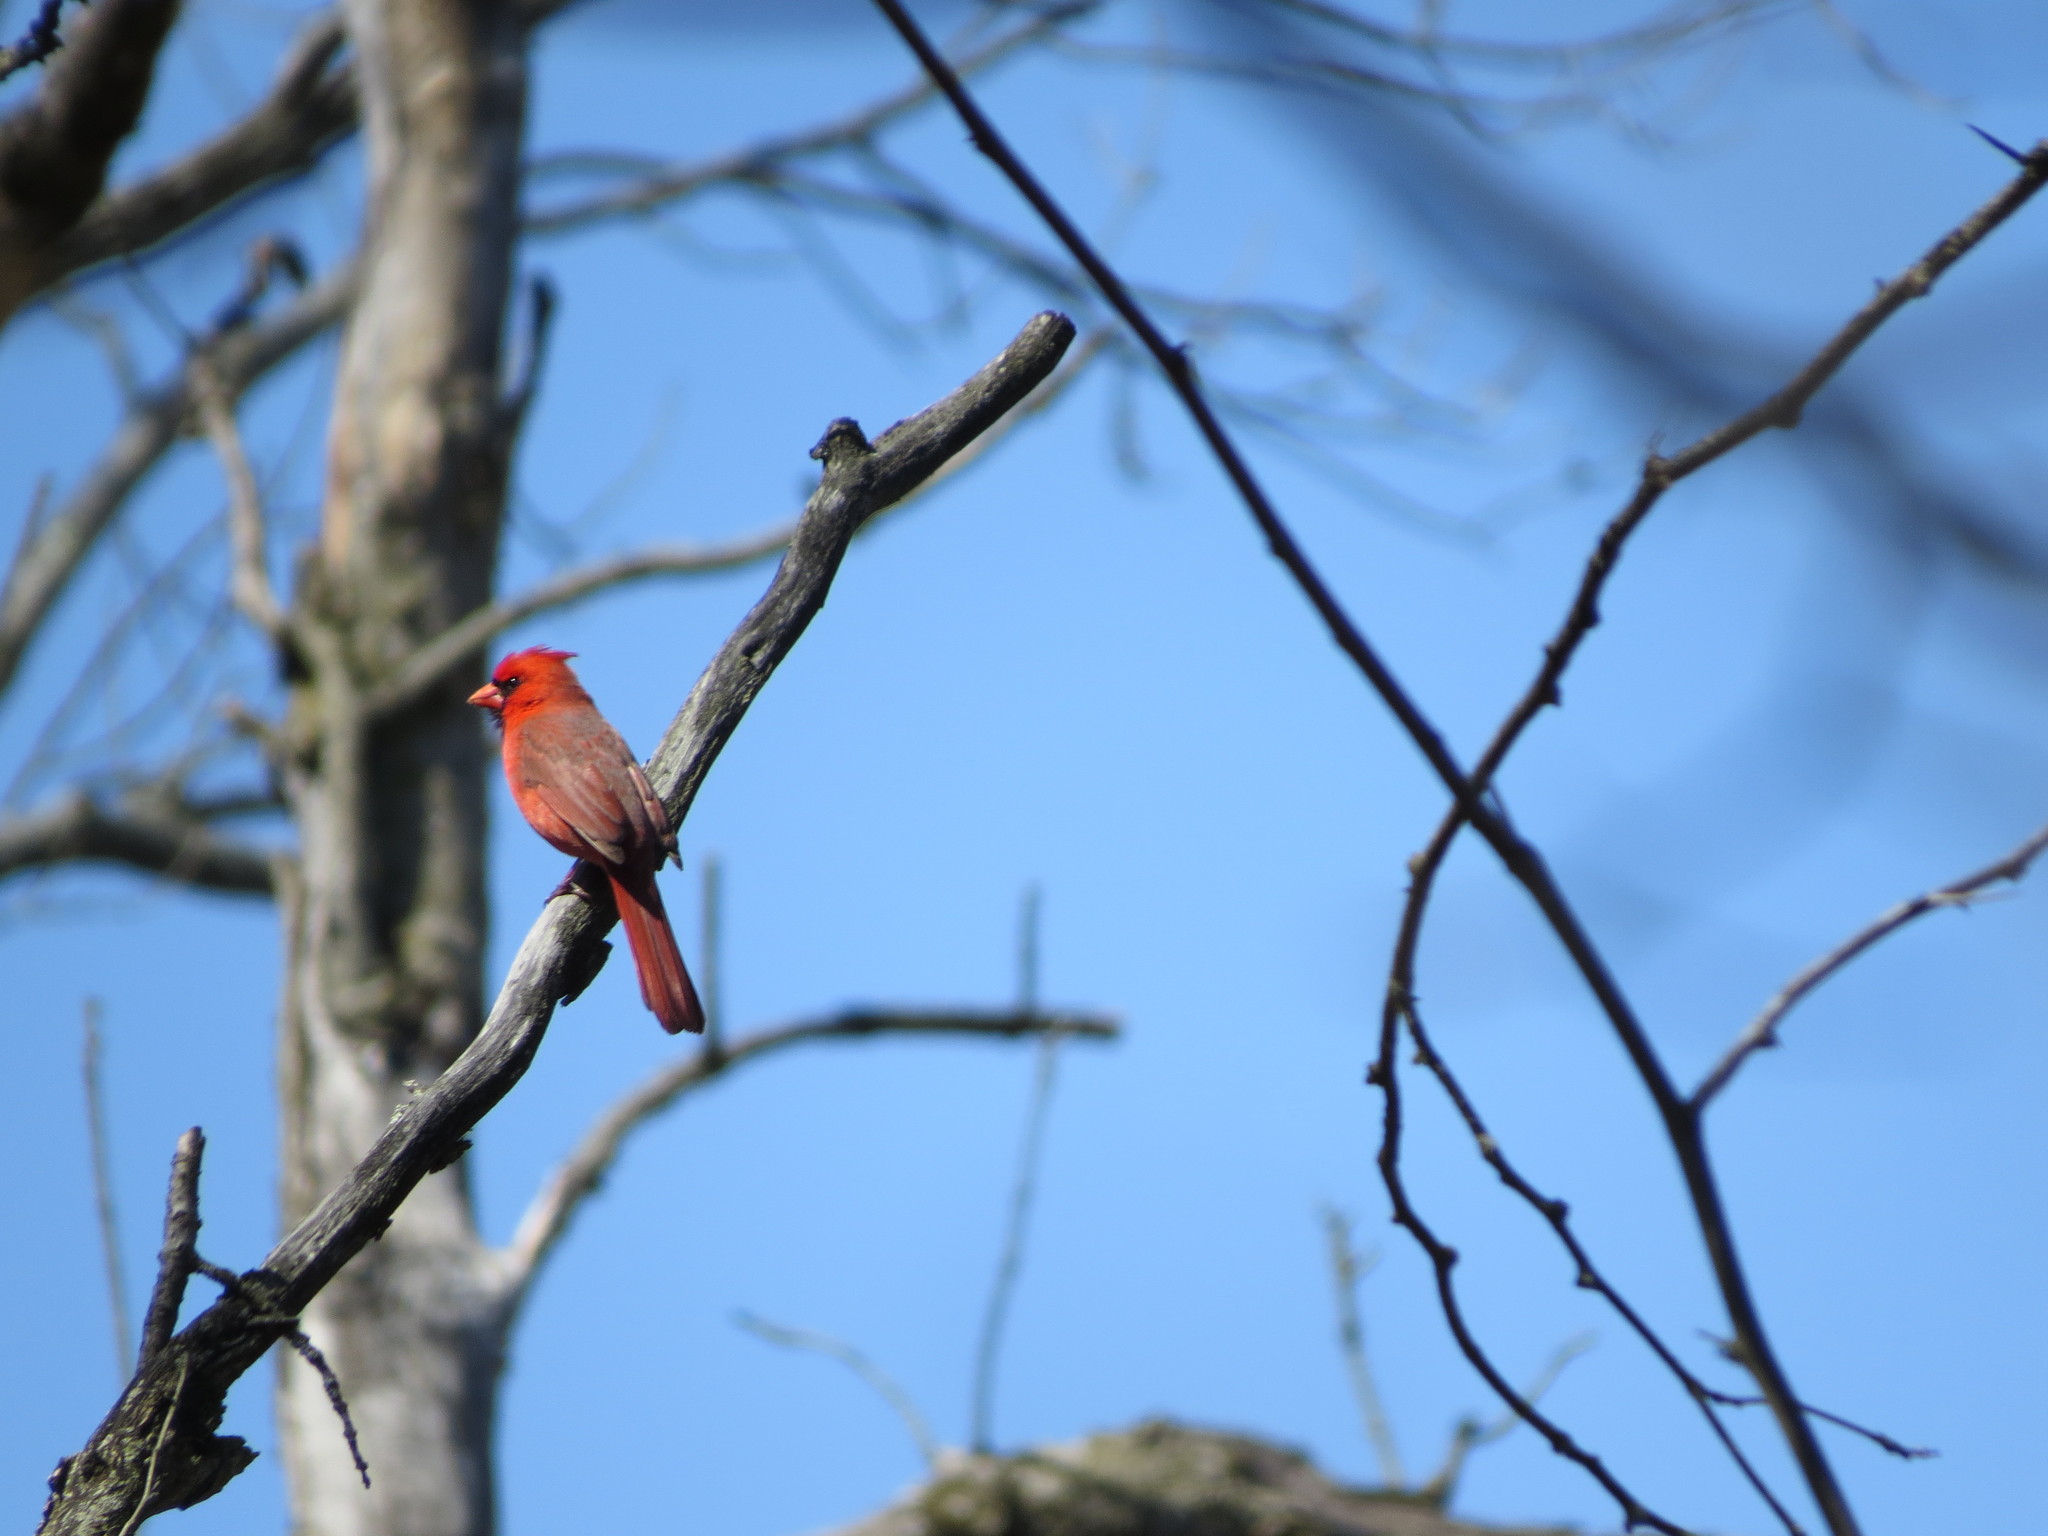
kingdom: Animalia
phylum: Chordata
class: Aves
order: Passeriformes
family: Cardinalidae
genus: Cardinalis
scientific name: Cardinalis cardinalis
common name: Northern cardinal
